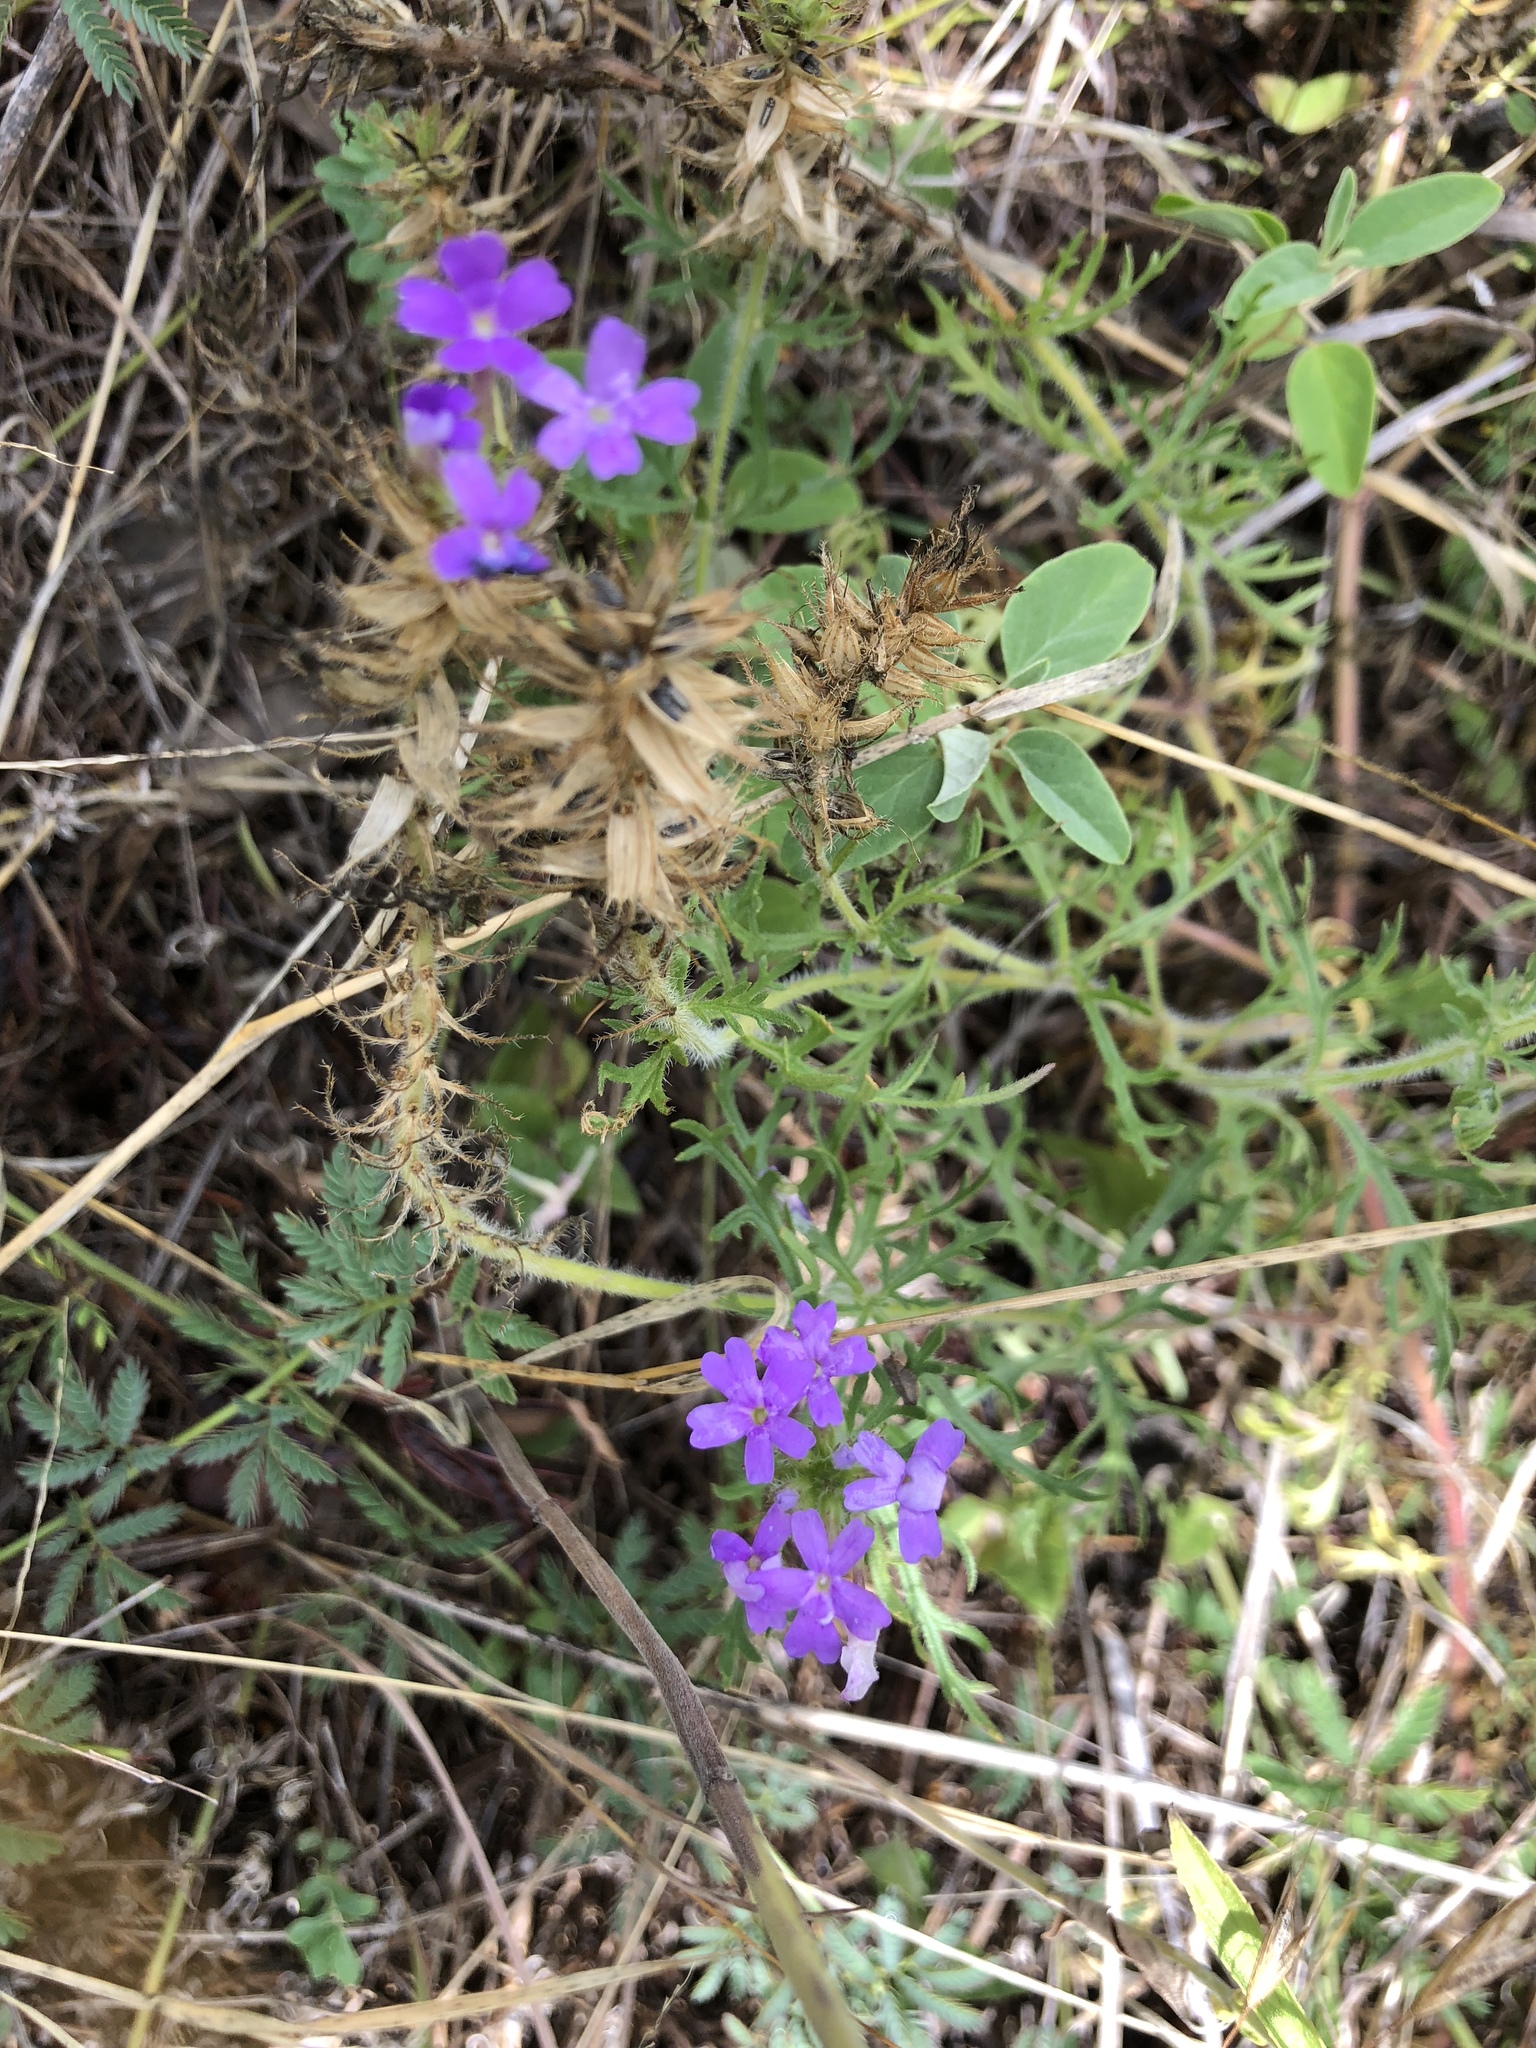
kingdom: Plantae
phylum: Tracheophyta
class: Magnoliopsida
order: Lamiales
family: Verbenaceae
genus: Verbena
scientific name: Verbena bipinnatifida
